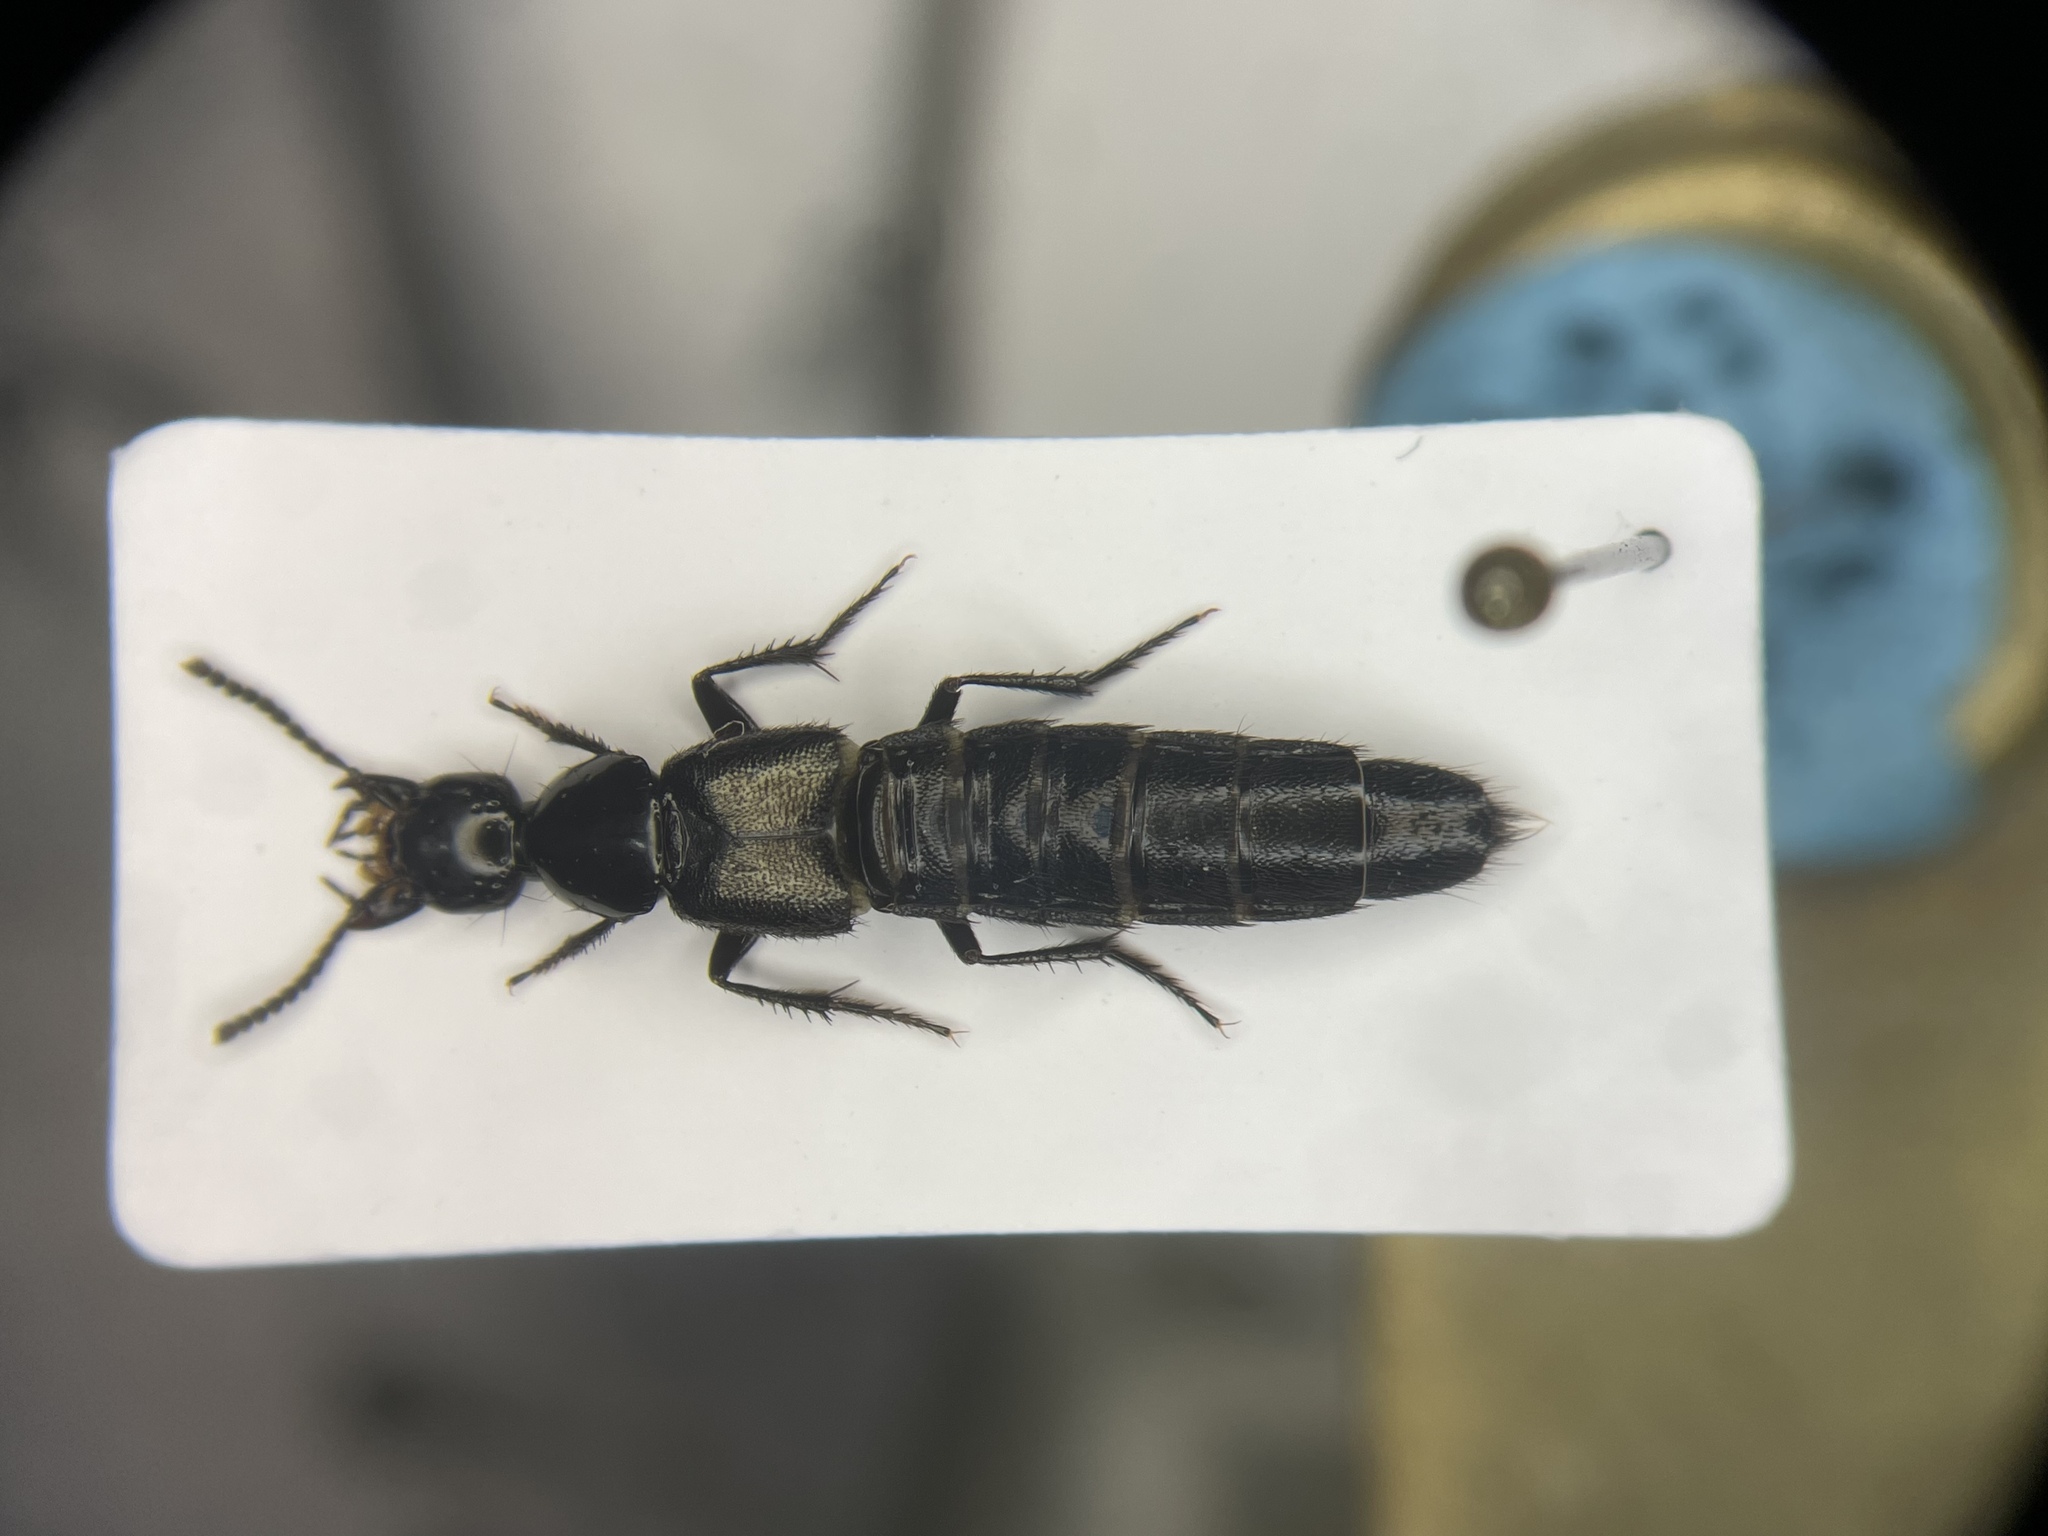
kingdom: Animalia
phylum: Arthropoda
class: Insecta
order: Coleoptera
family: Staphylinidae
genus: Philonthus
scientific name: Philonthus validus
